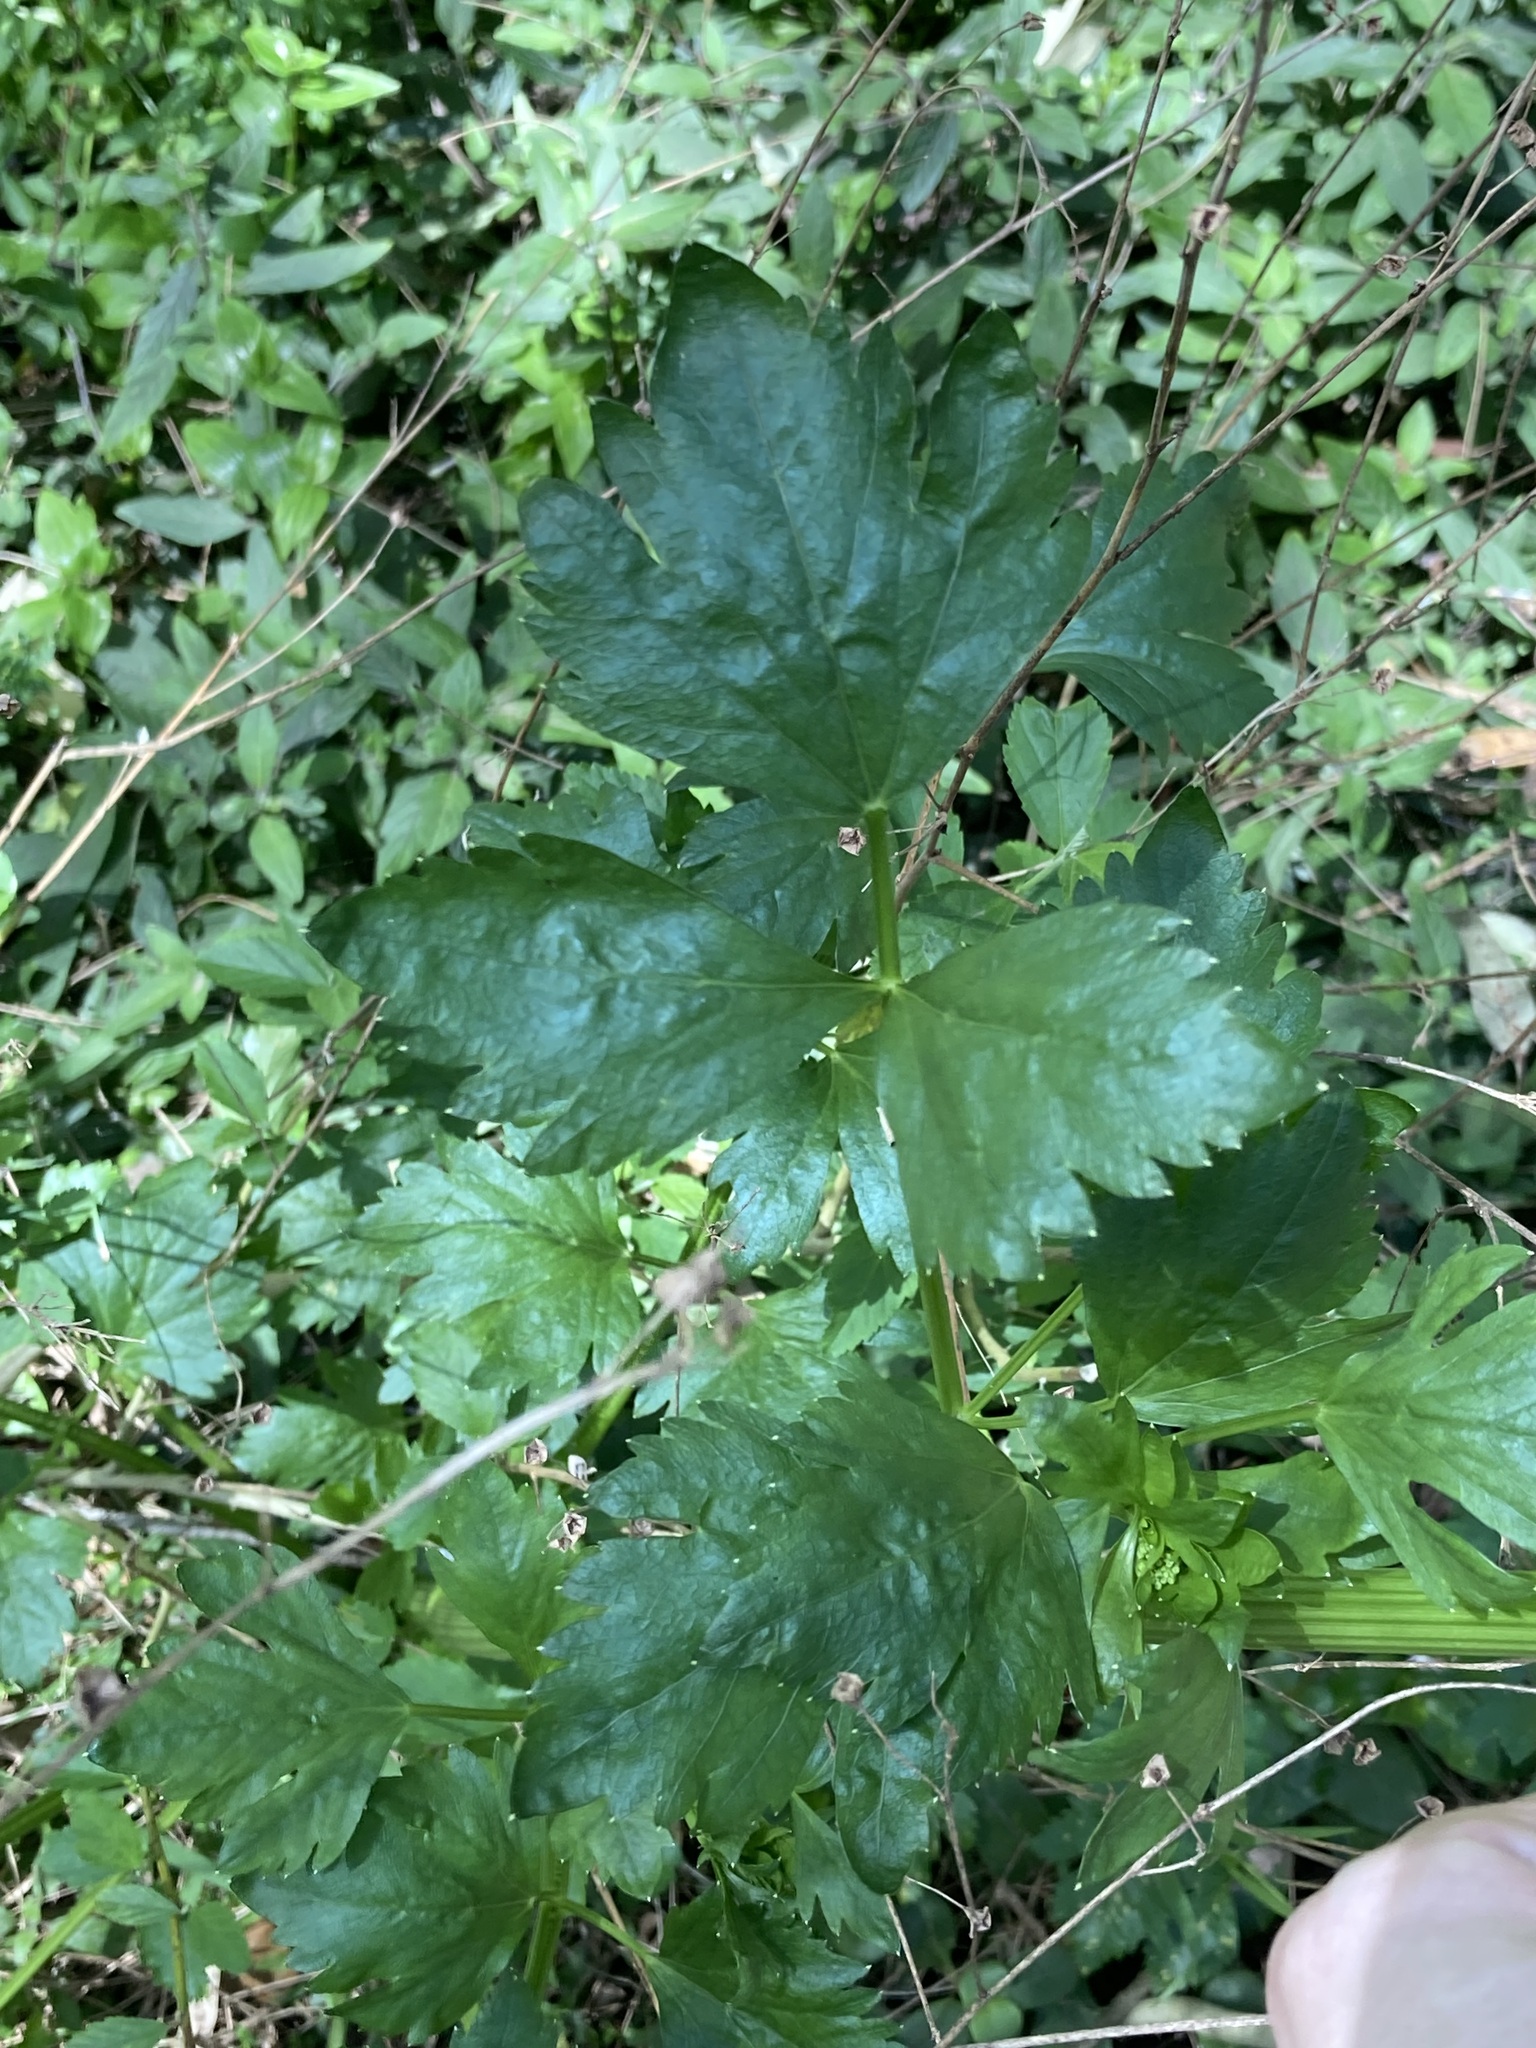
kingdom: Plantae
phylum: Tracheophyta
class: Magnoliopsida
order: Apiales
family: Apiaceae
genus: Apium
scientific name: Apium graveolens
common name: Wild celery
